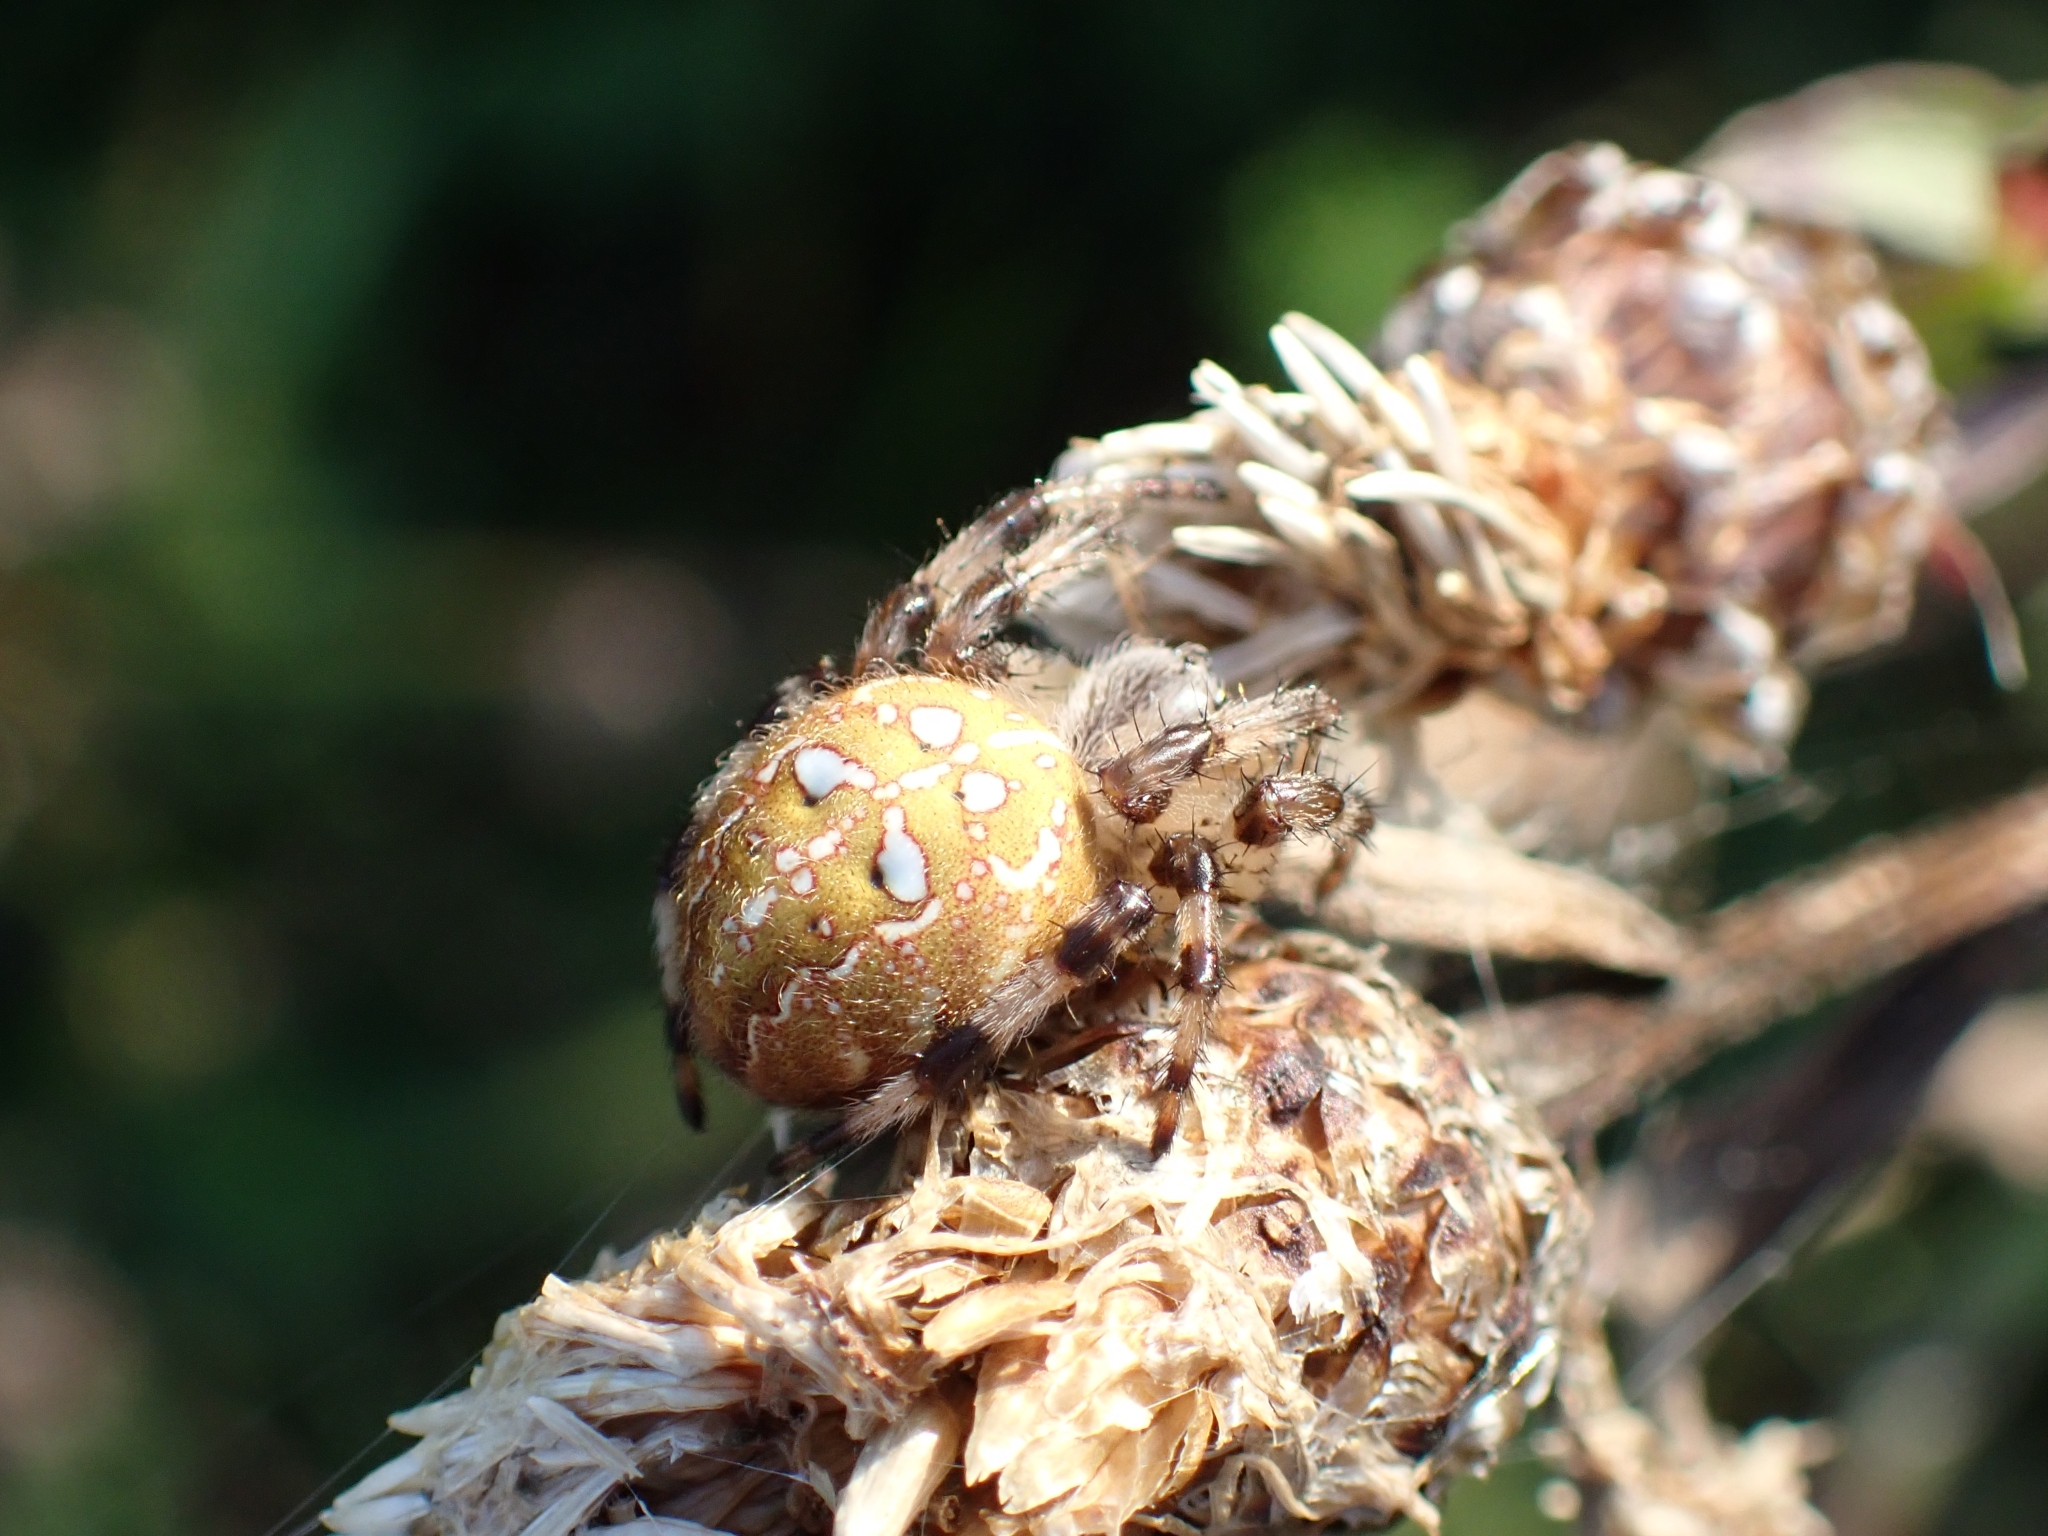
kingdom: Animalia
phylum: Arthropoda
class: Arachnida
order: Araneae
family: Araneidae
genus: Araneus
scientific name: Araneus quadratus
